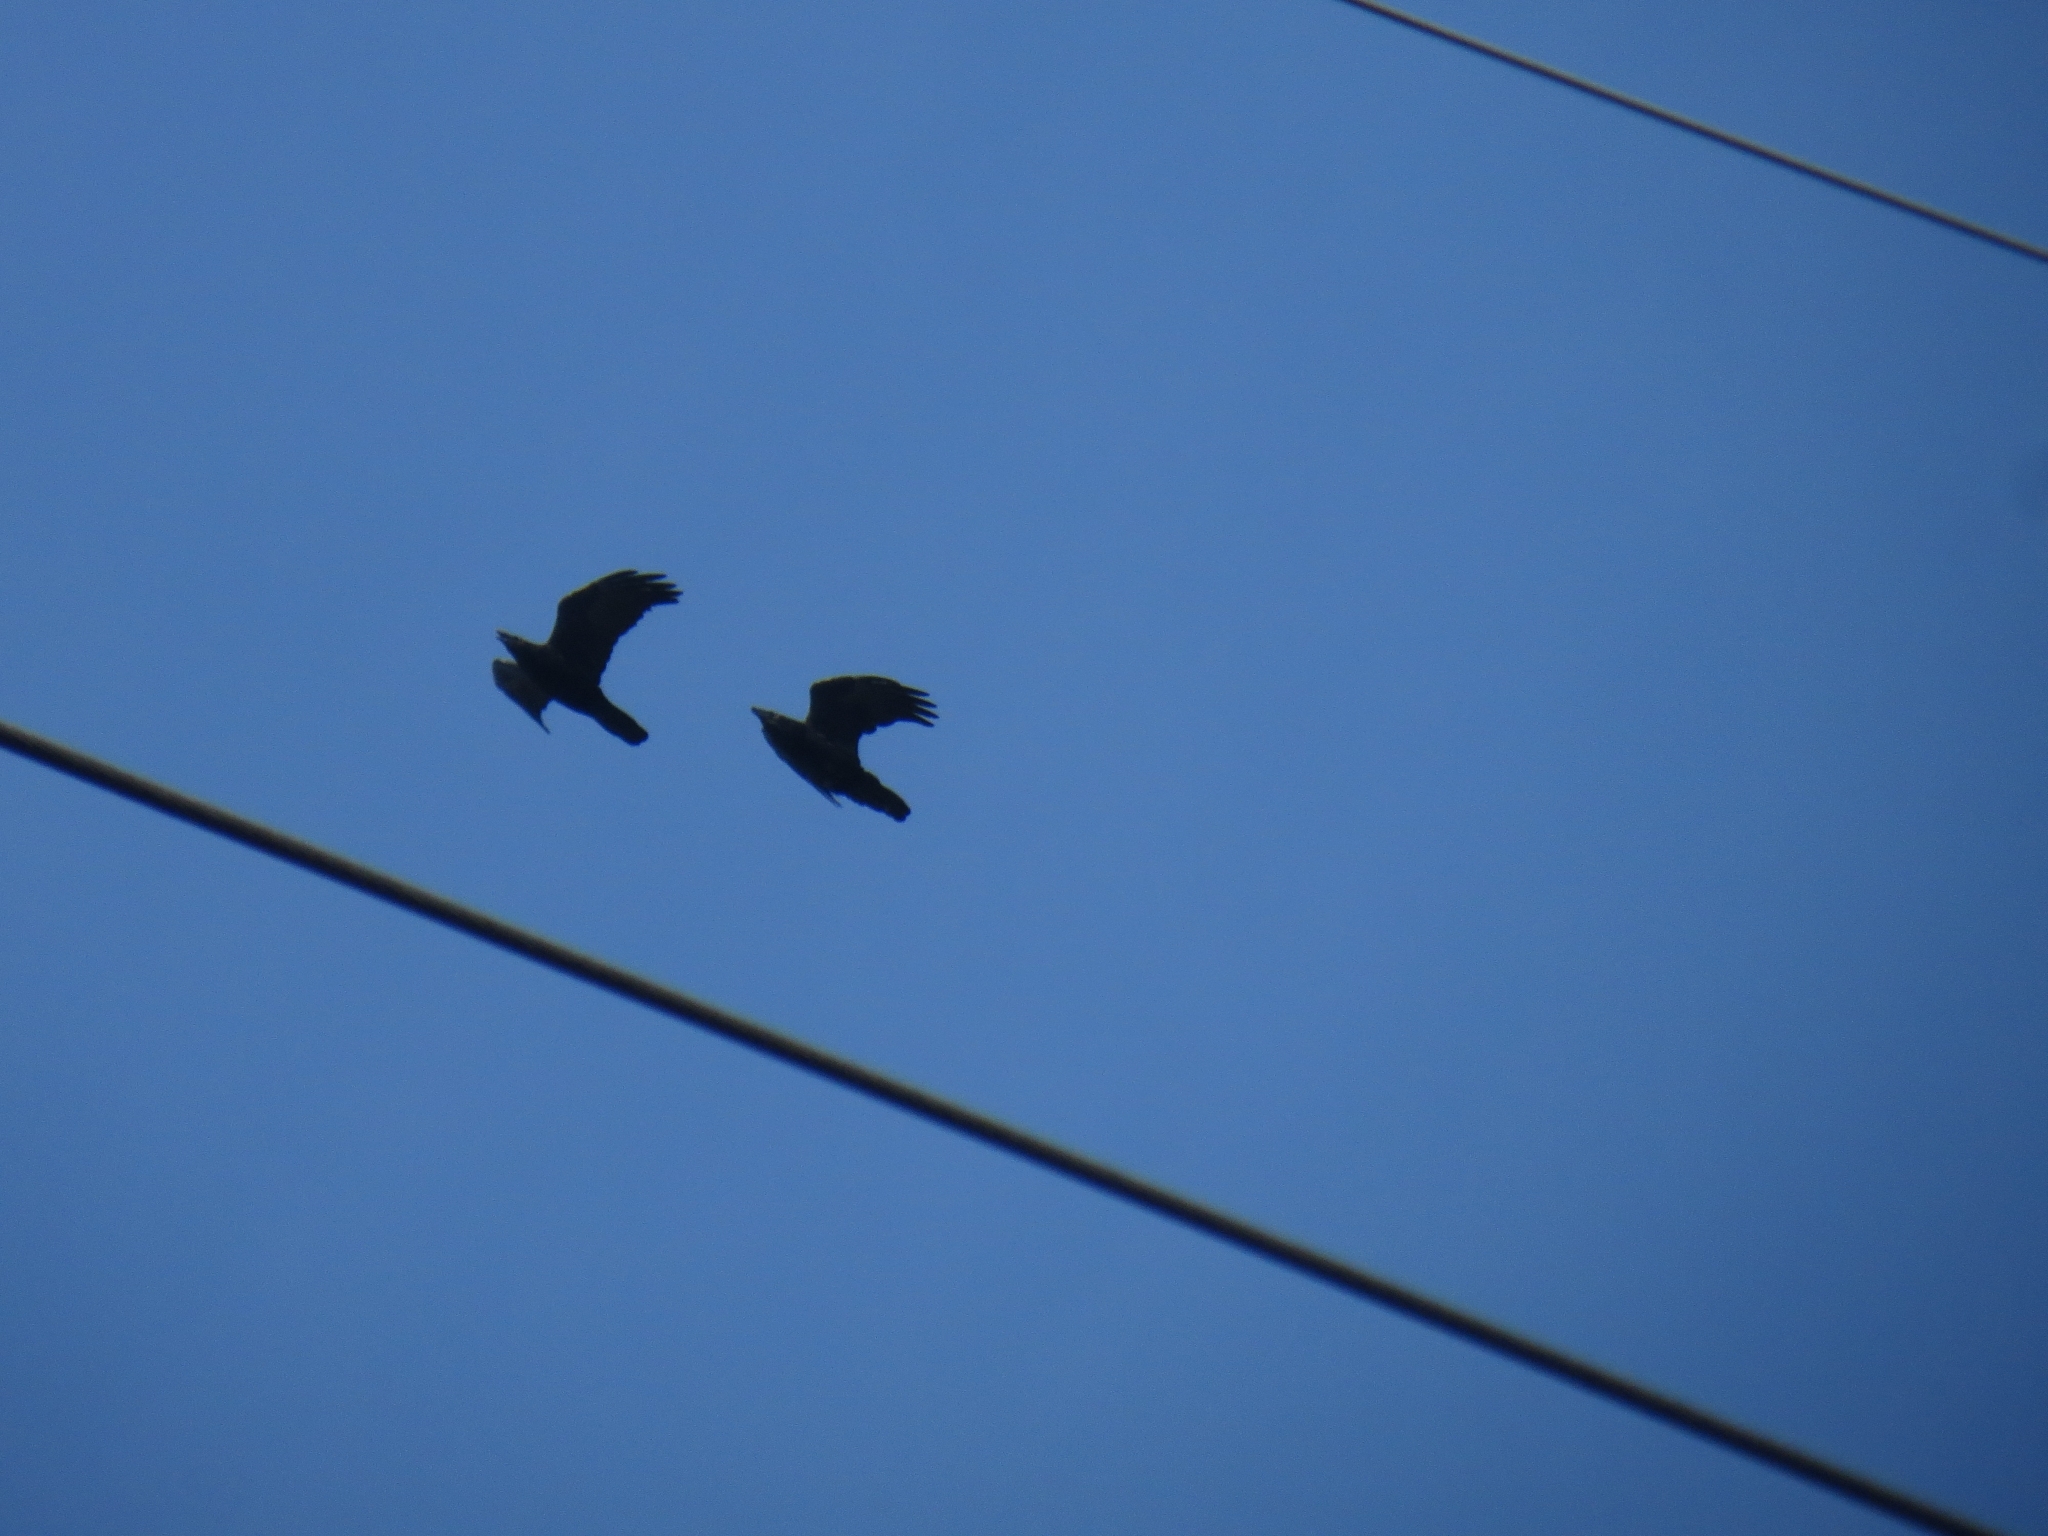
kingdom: Animalia
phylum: Chordata
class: Aves
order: Passeriformes
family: Corvidae
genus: Corvus
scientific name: Corvus corax
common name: Common raven
